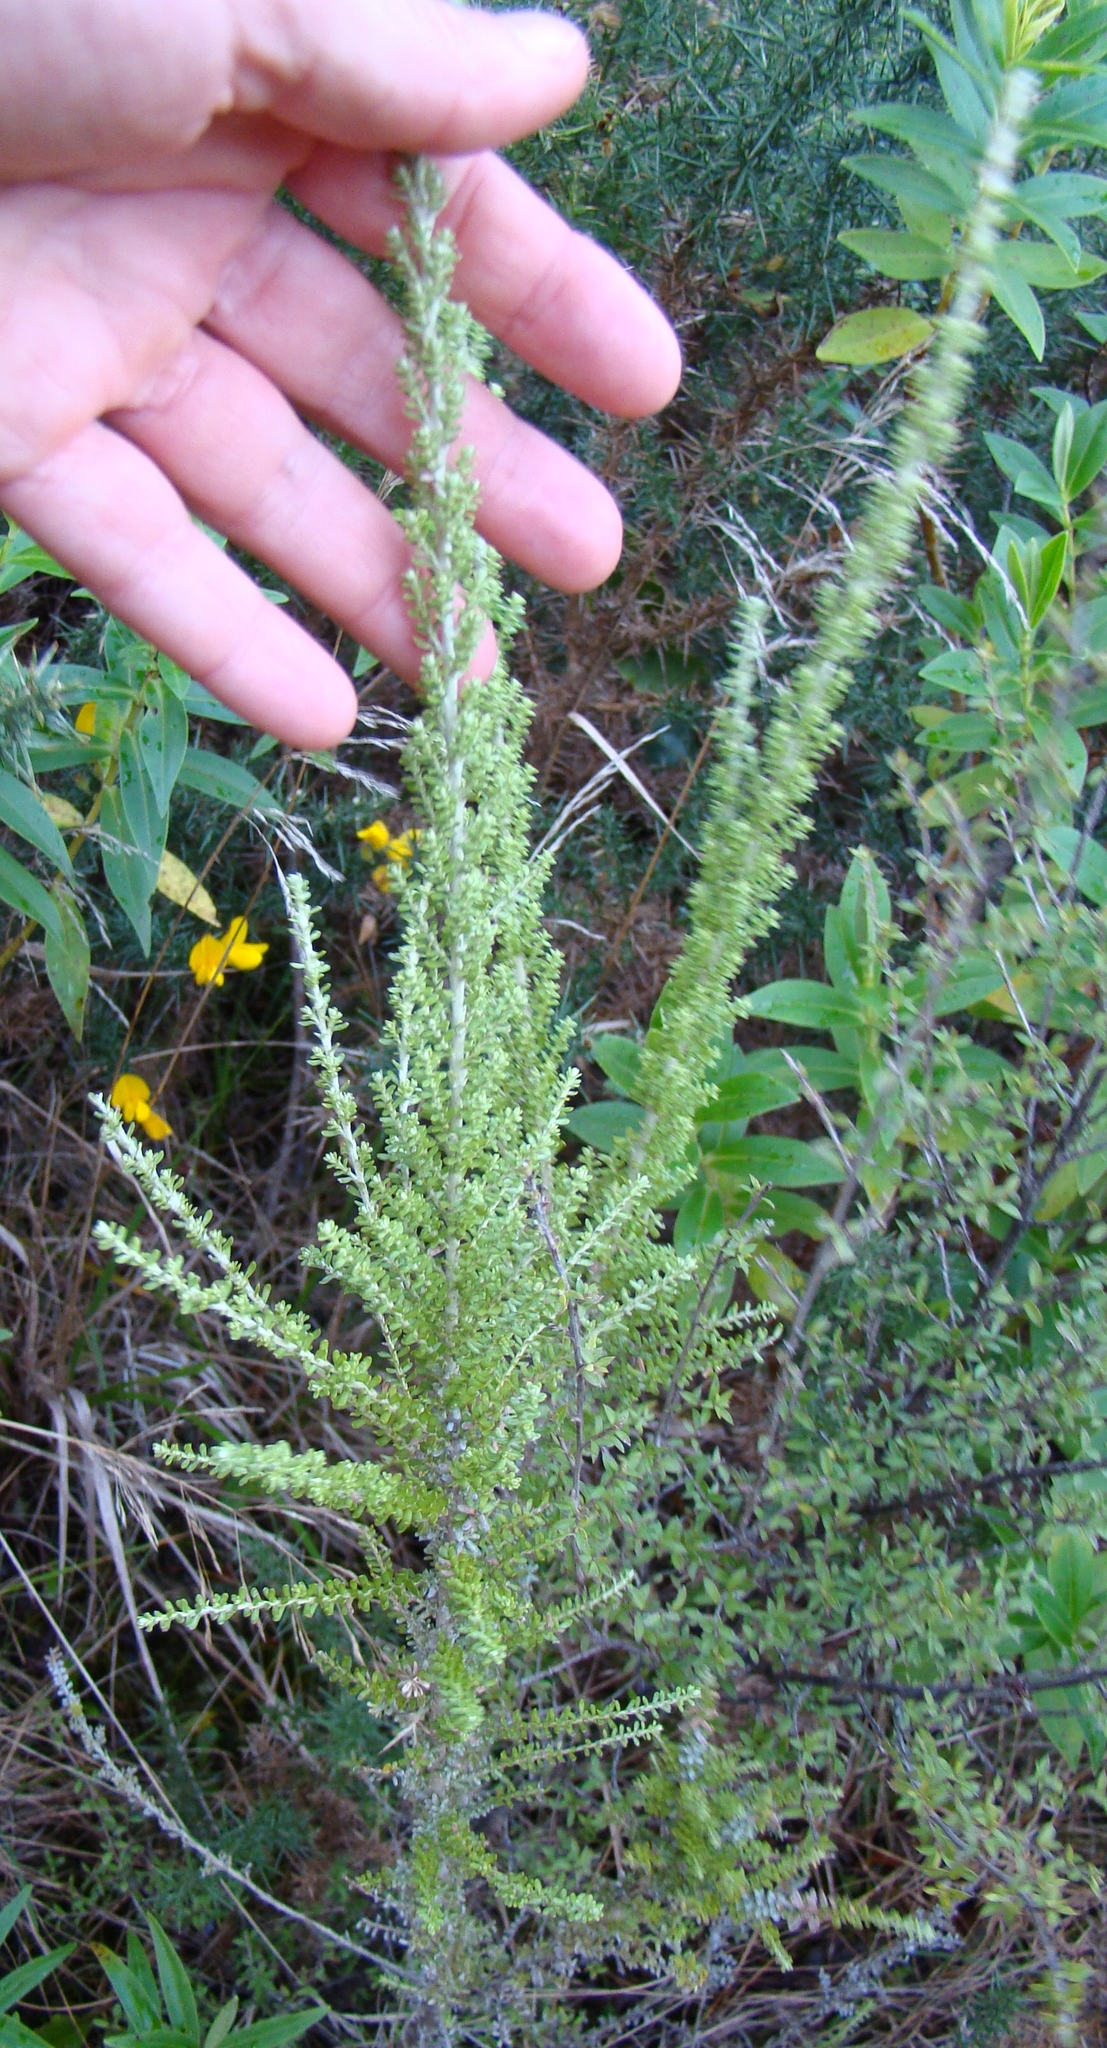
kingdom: Plantae
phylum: Tracheophyta
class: Magnoliopsida
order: Asterales
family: Asteraceae
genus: Ozothamnus
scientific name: Ozothamnus leptophyllus
